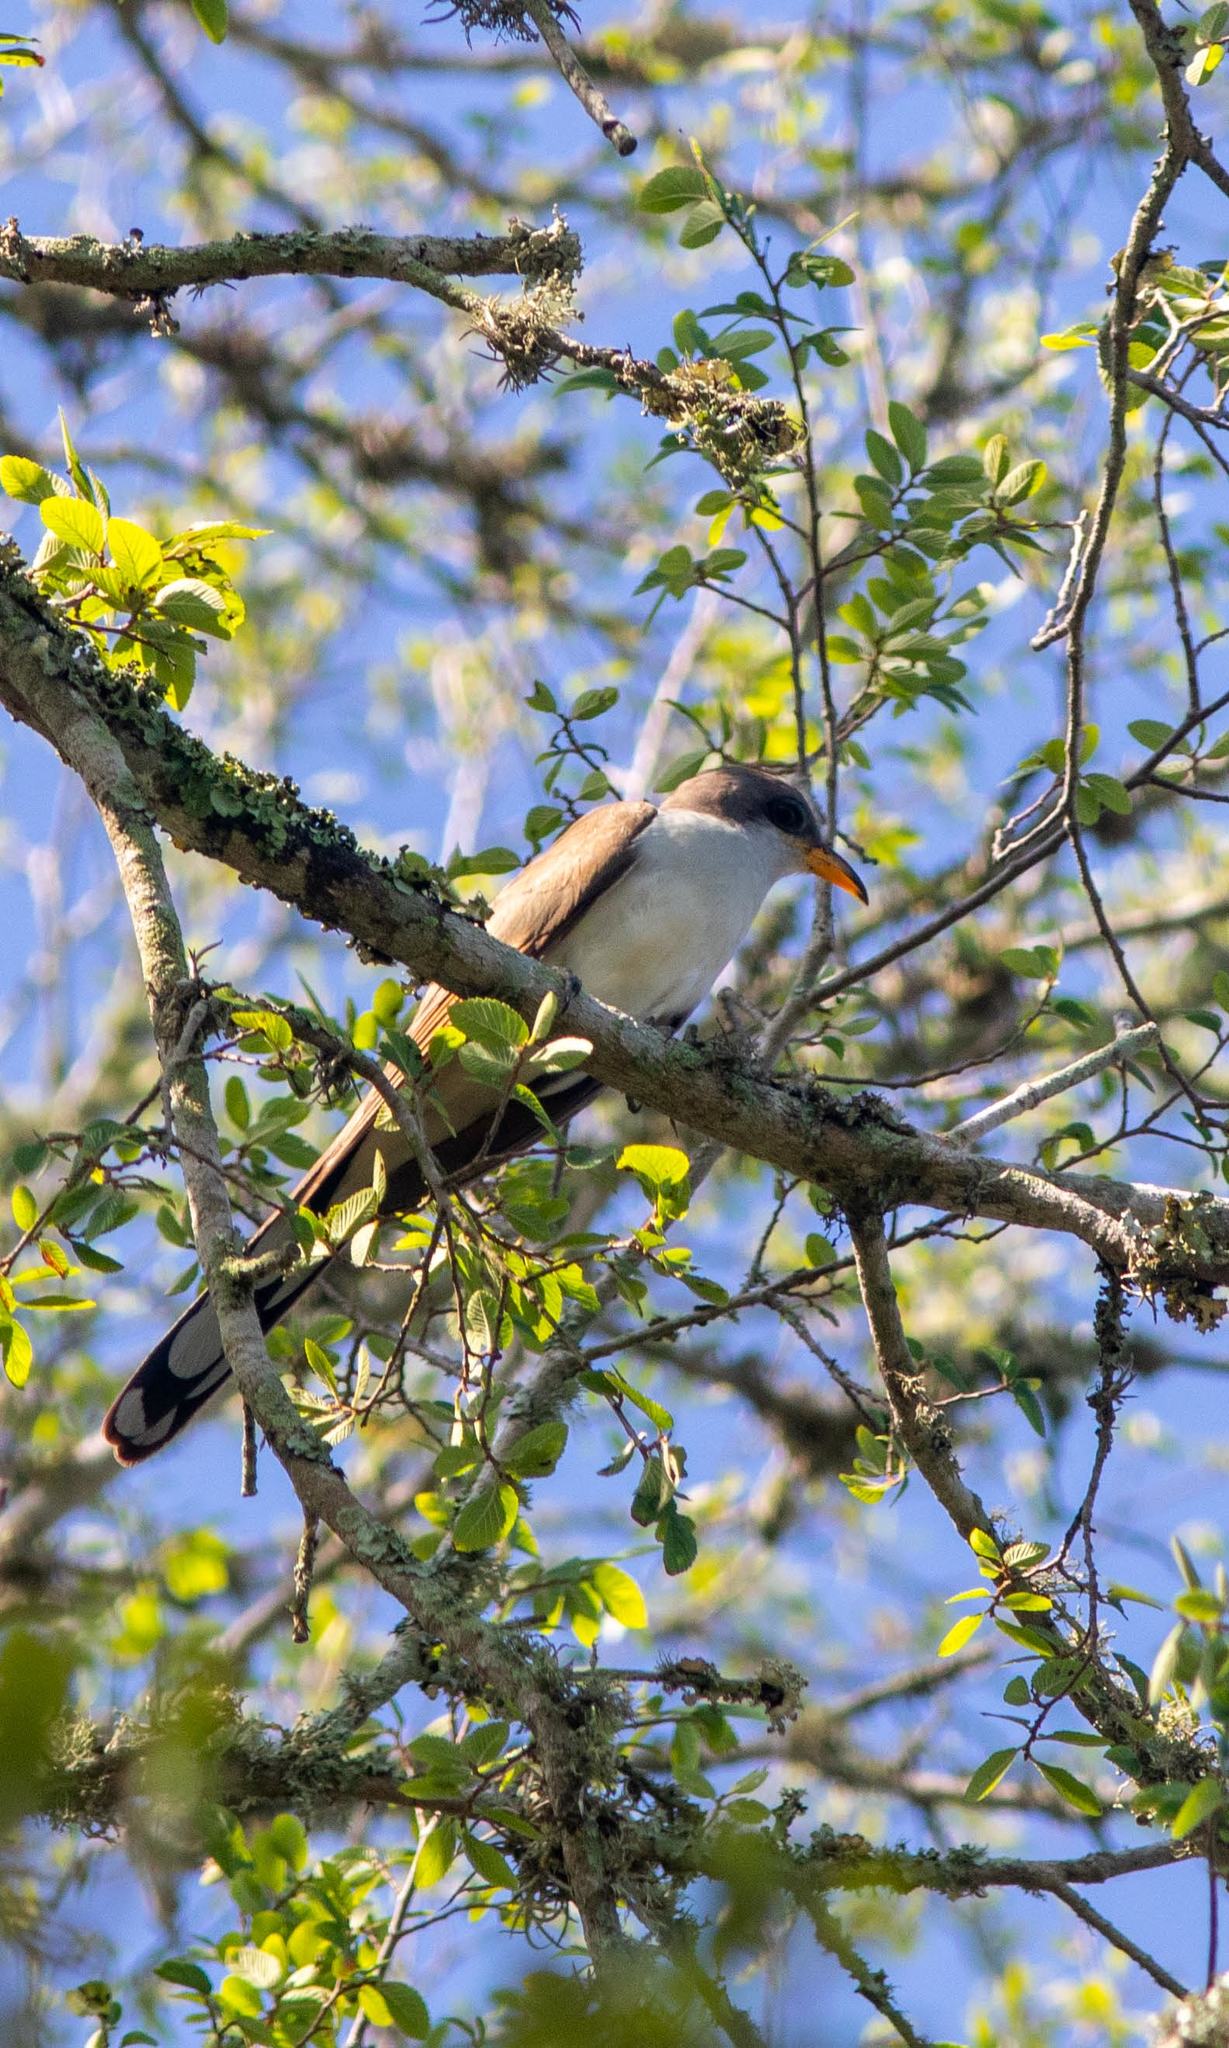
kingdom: Animalia
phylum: Chordata
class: Aves
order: Cuculiformes
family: Cuculidae
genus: Coccyzus
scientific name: Coccyzus americanus
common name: Yellow-billed cuckoo
